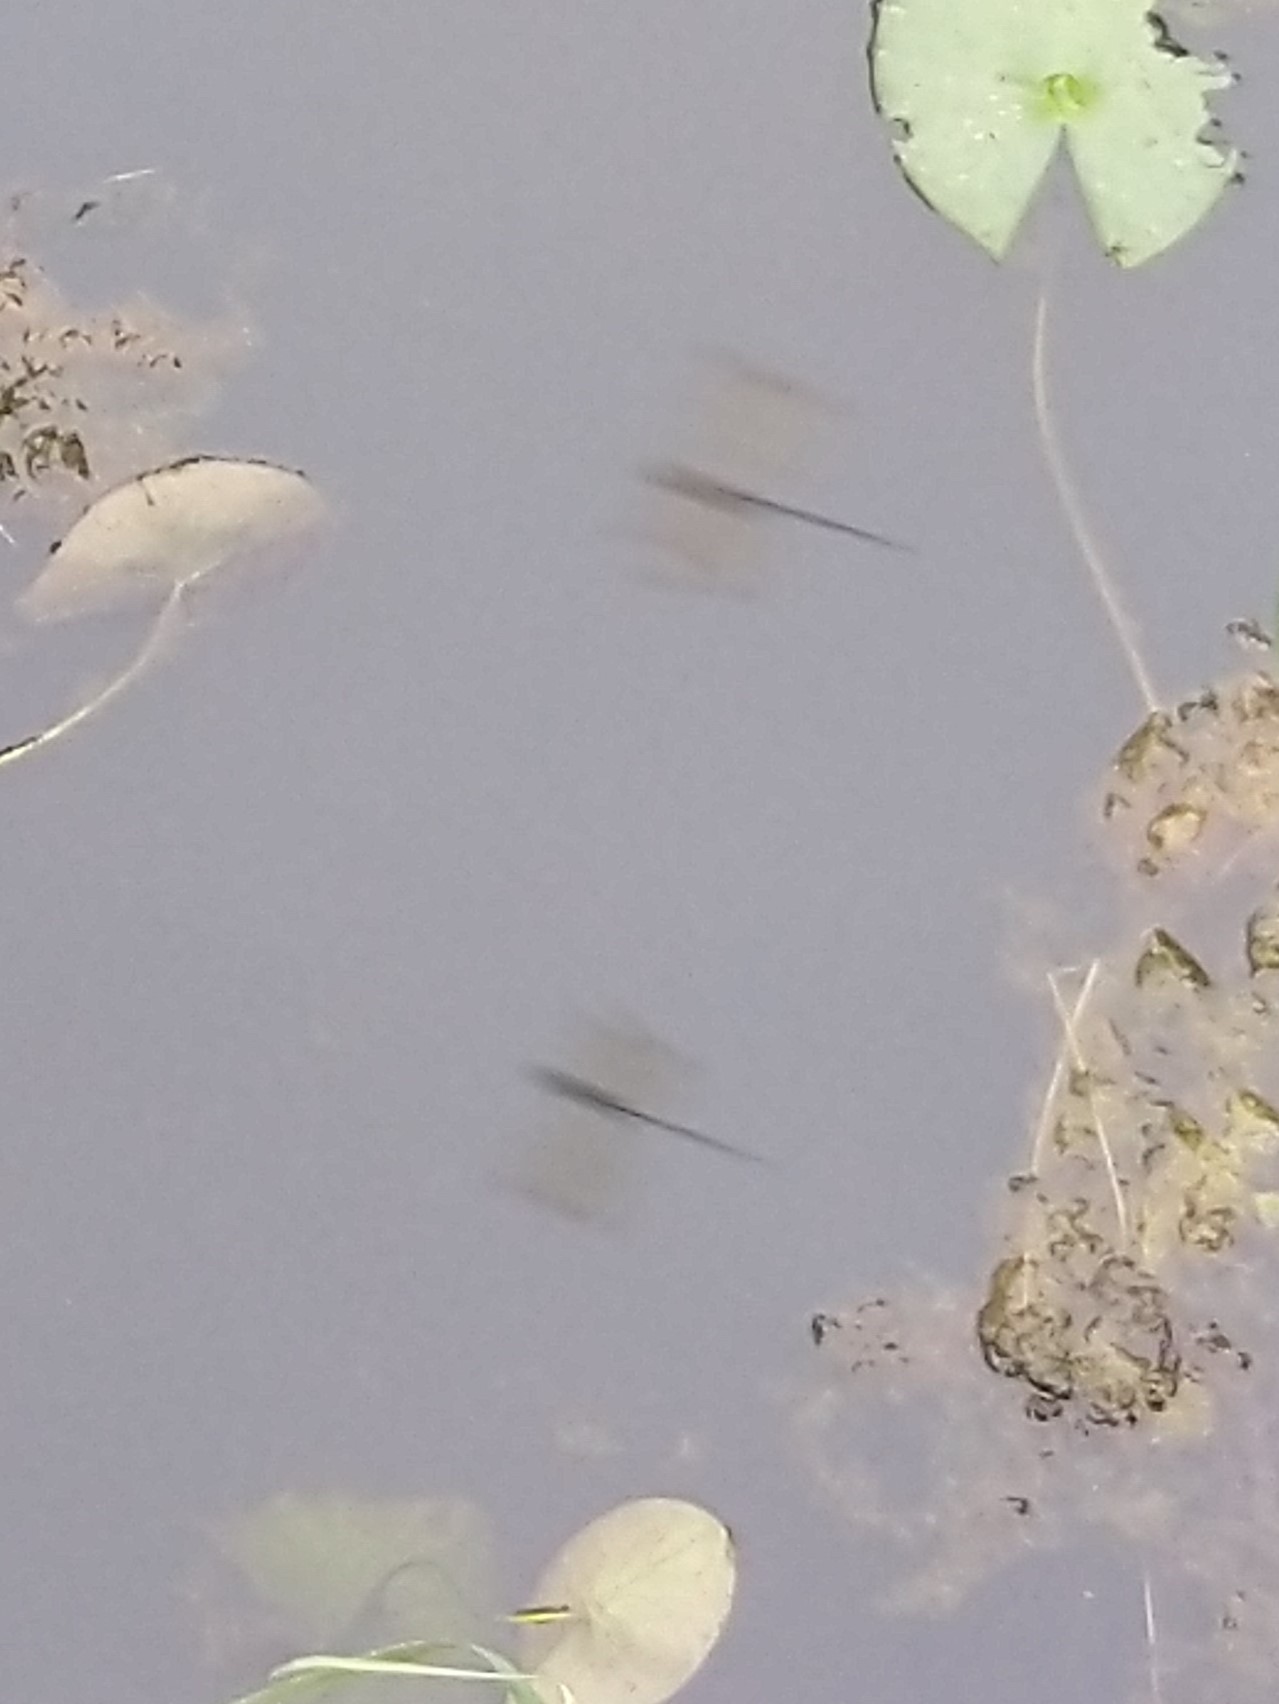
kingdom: Animalia
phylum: Arthropoda
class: Insecta
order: Odonata
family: Libellulidae
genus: Zyxomma
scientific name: Zyxomma petiolatum
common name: Dingy dusk-darter
